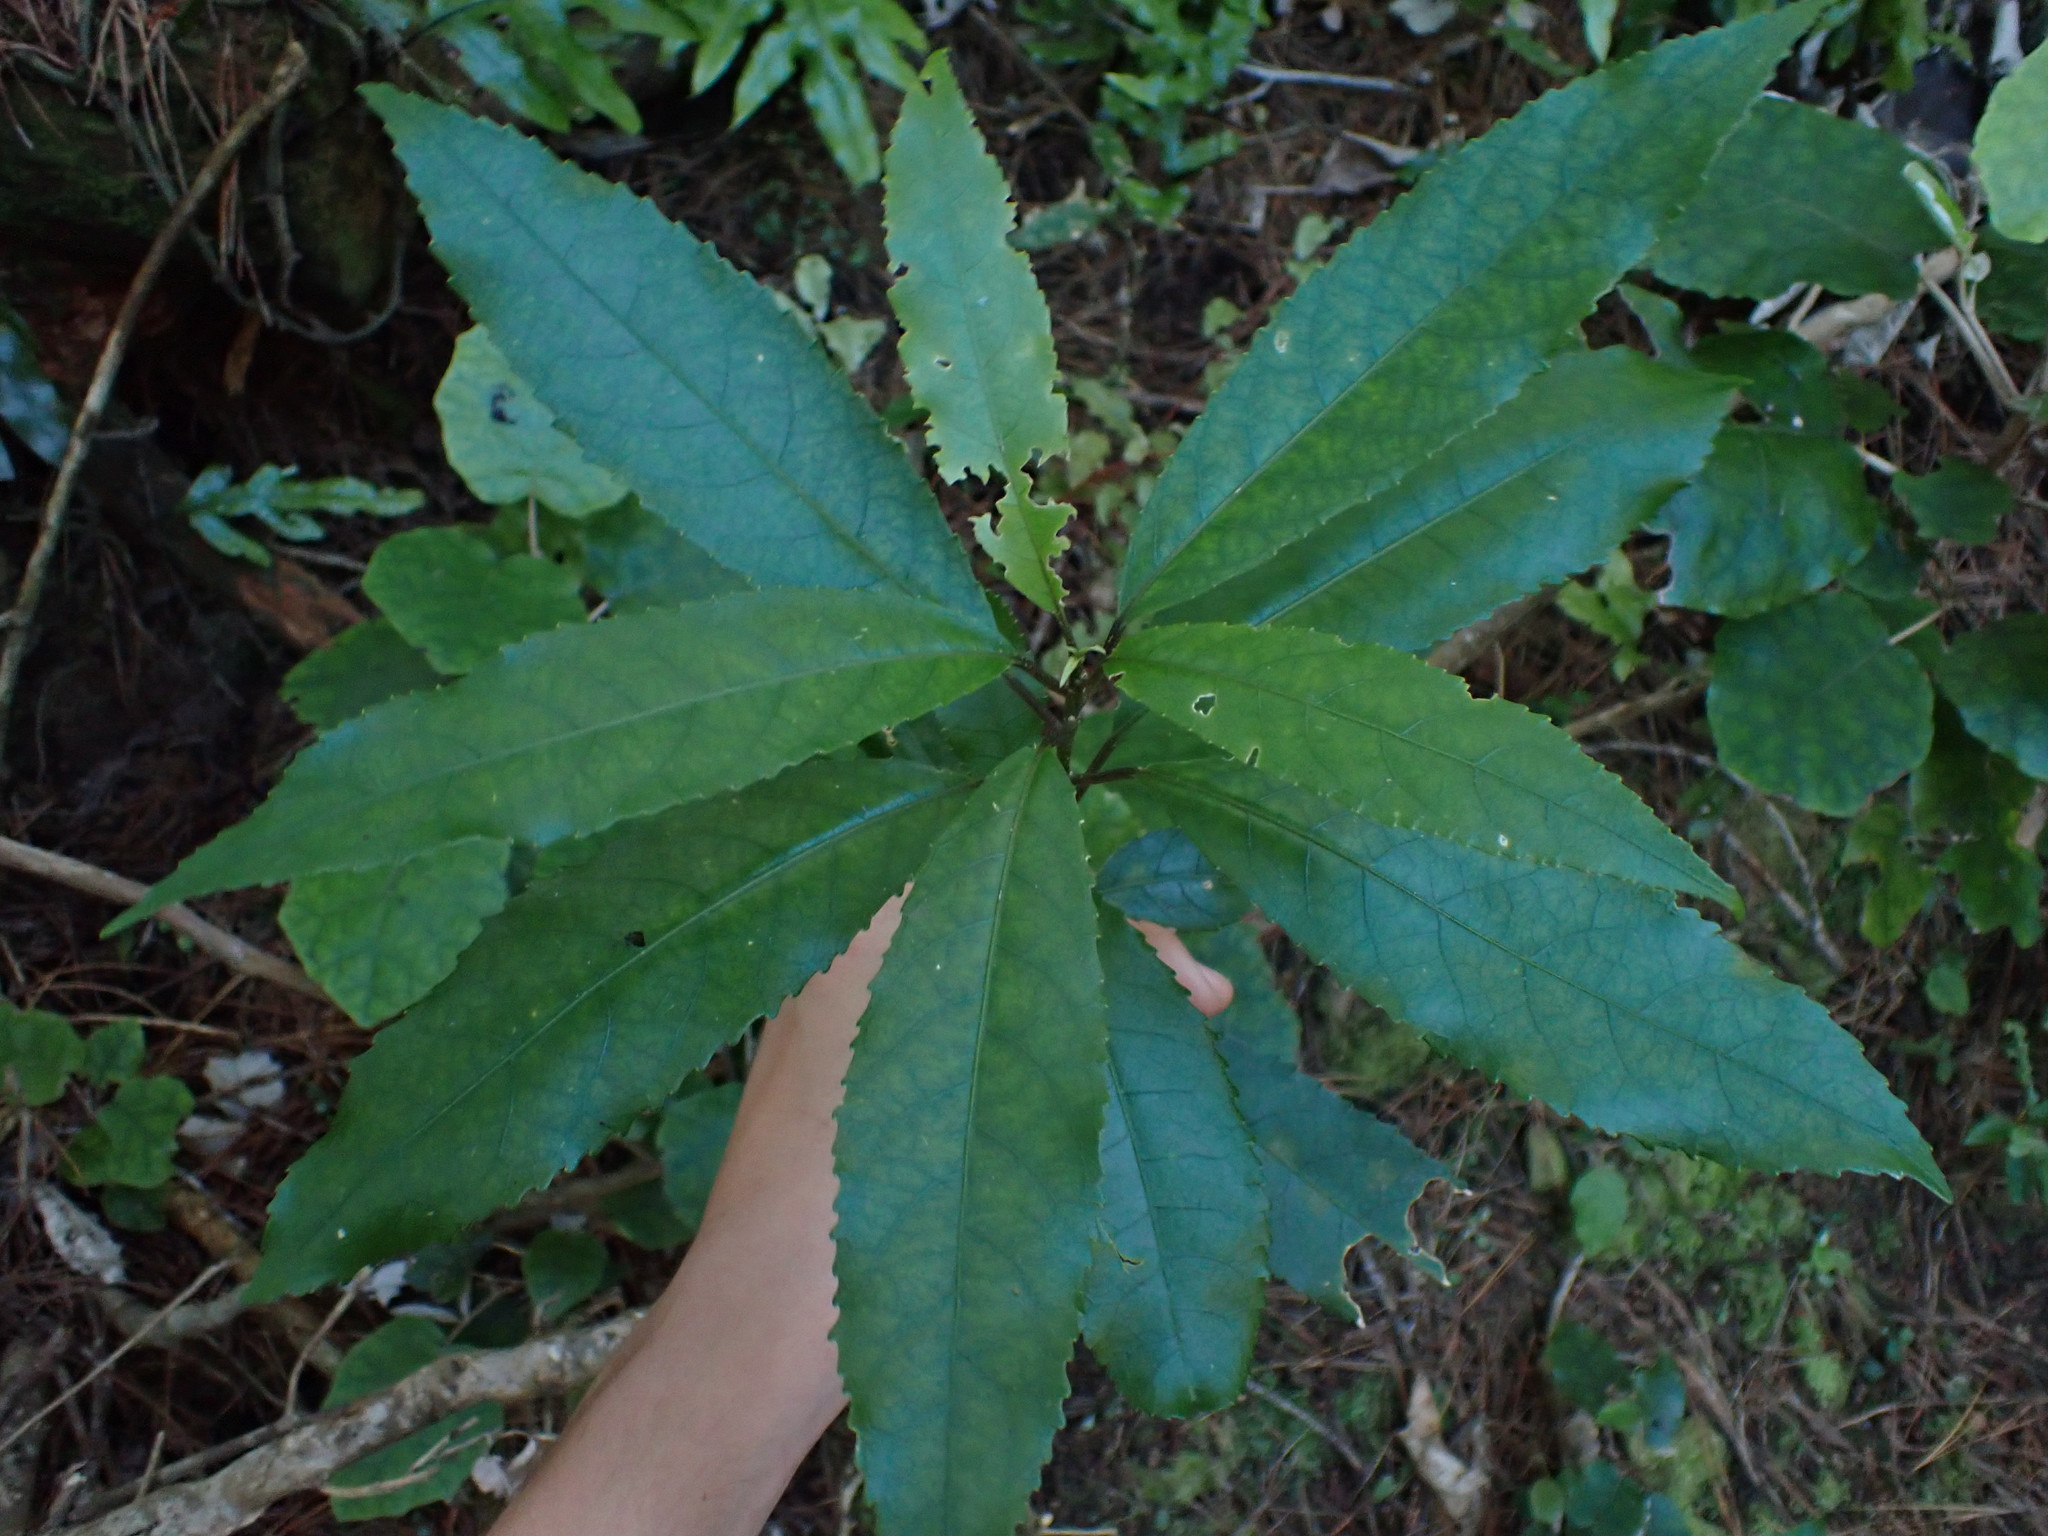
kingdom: Plantae
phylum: Tracheophyta
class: Magnoliopsida
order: Malpighiales
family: Violaceae
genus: Melicytus
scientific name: Melicytus ramiflorus
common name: Mahoe
